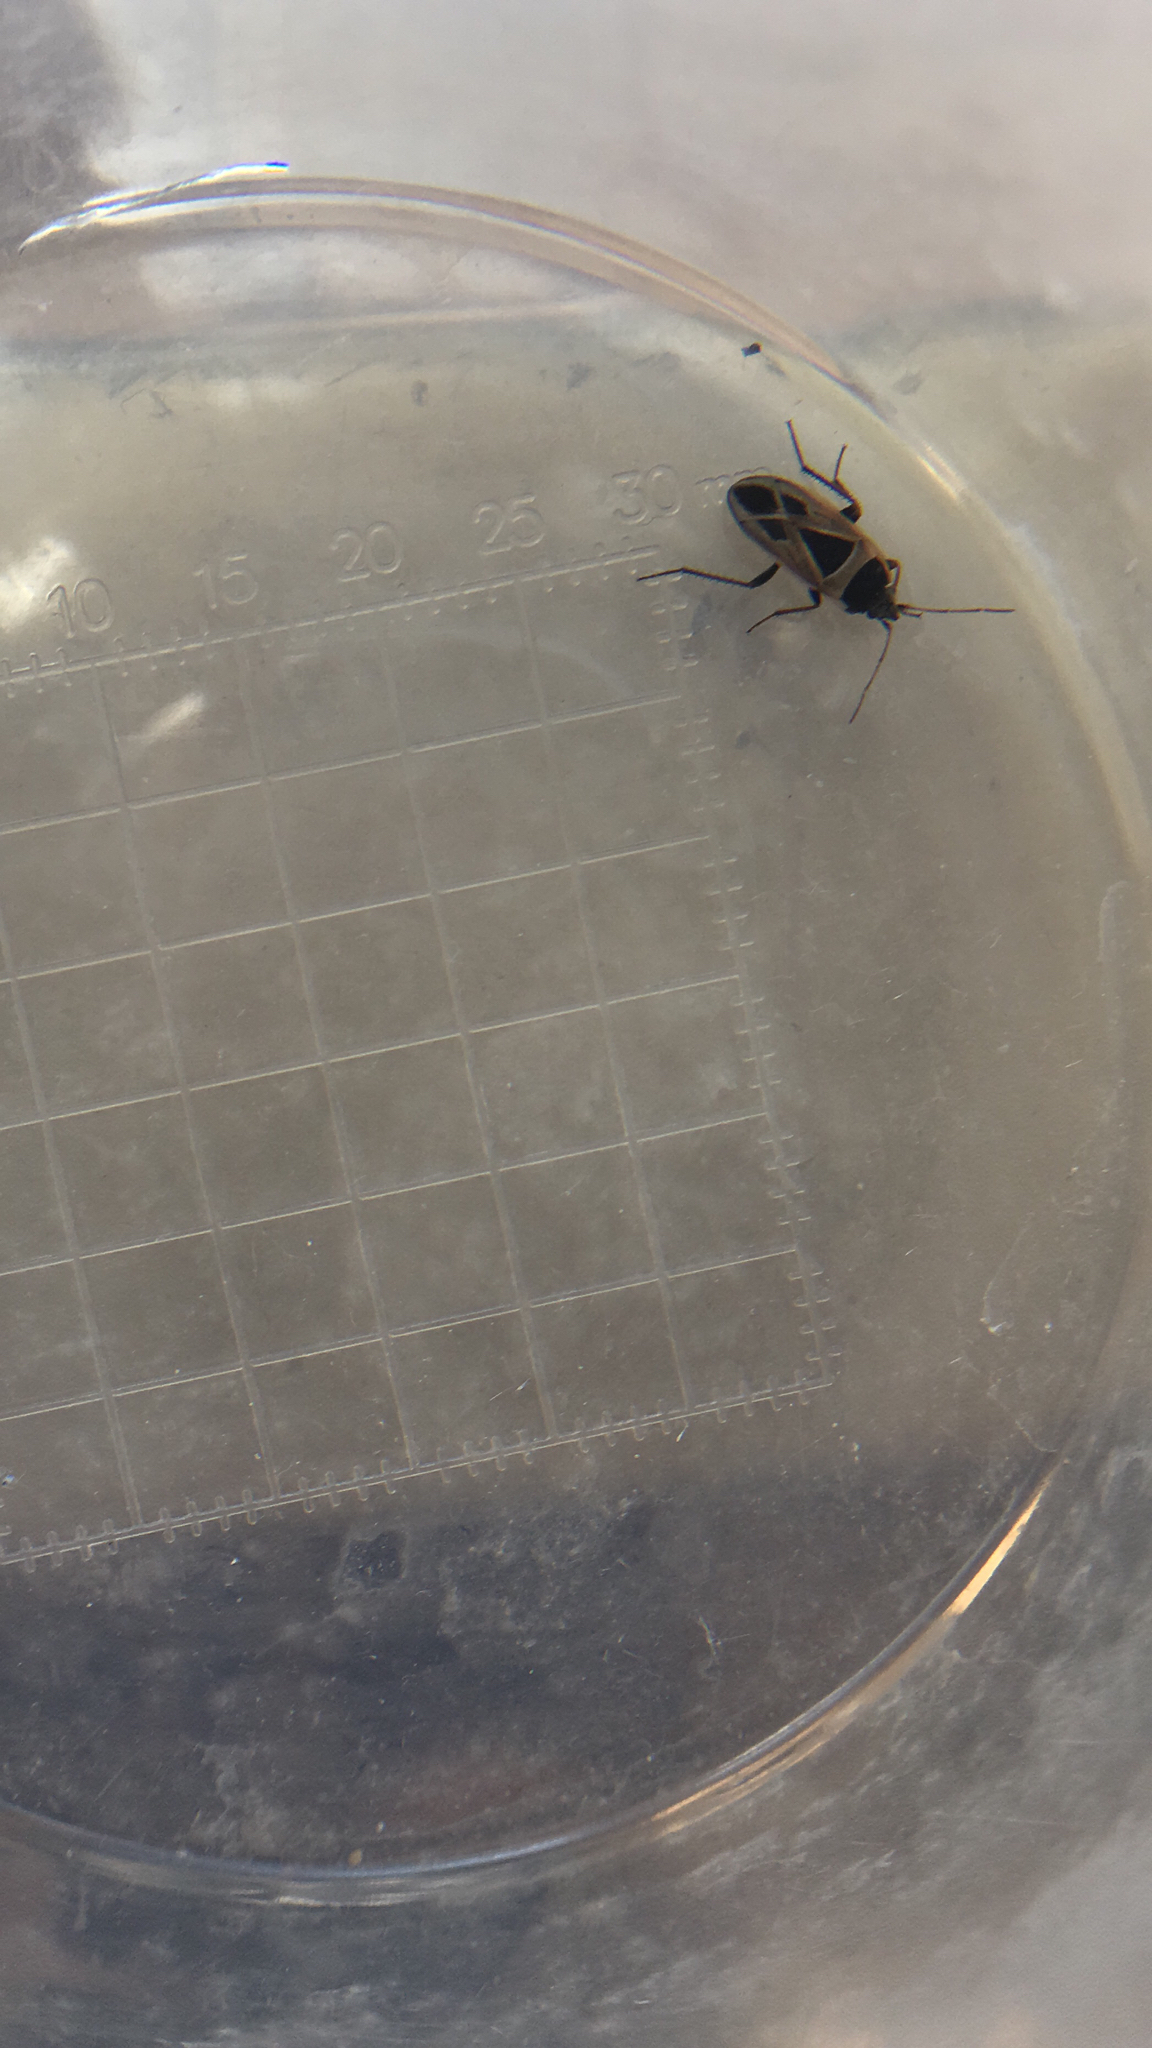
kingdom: Animalia
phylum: Arthropoda
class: Insecta
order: Hemiptera
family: Rhyparochromidae
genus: Xanthochilus
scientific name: Xanthochilus saturnius
